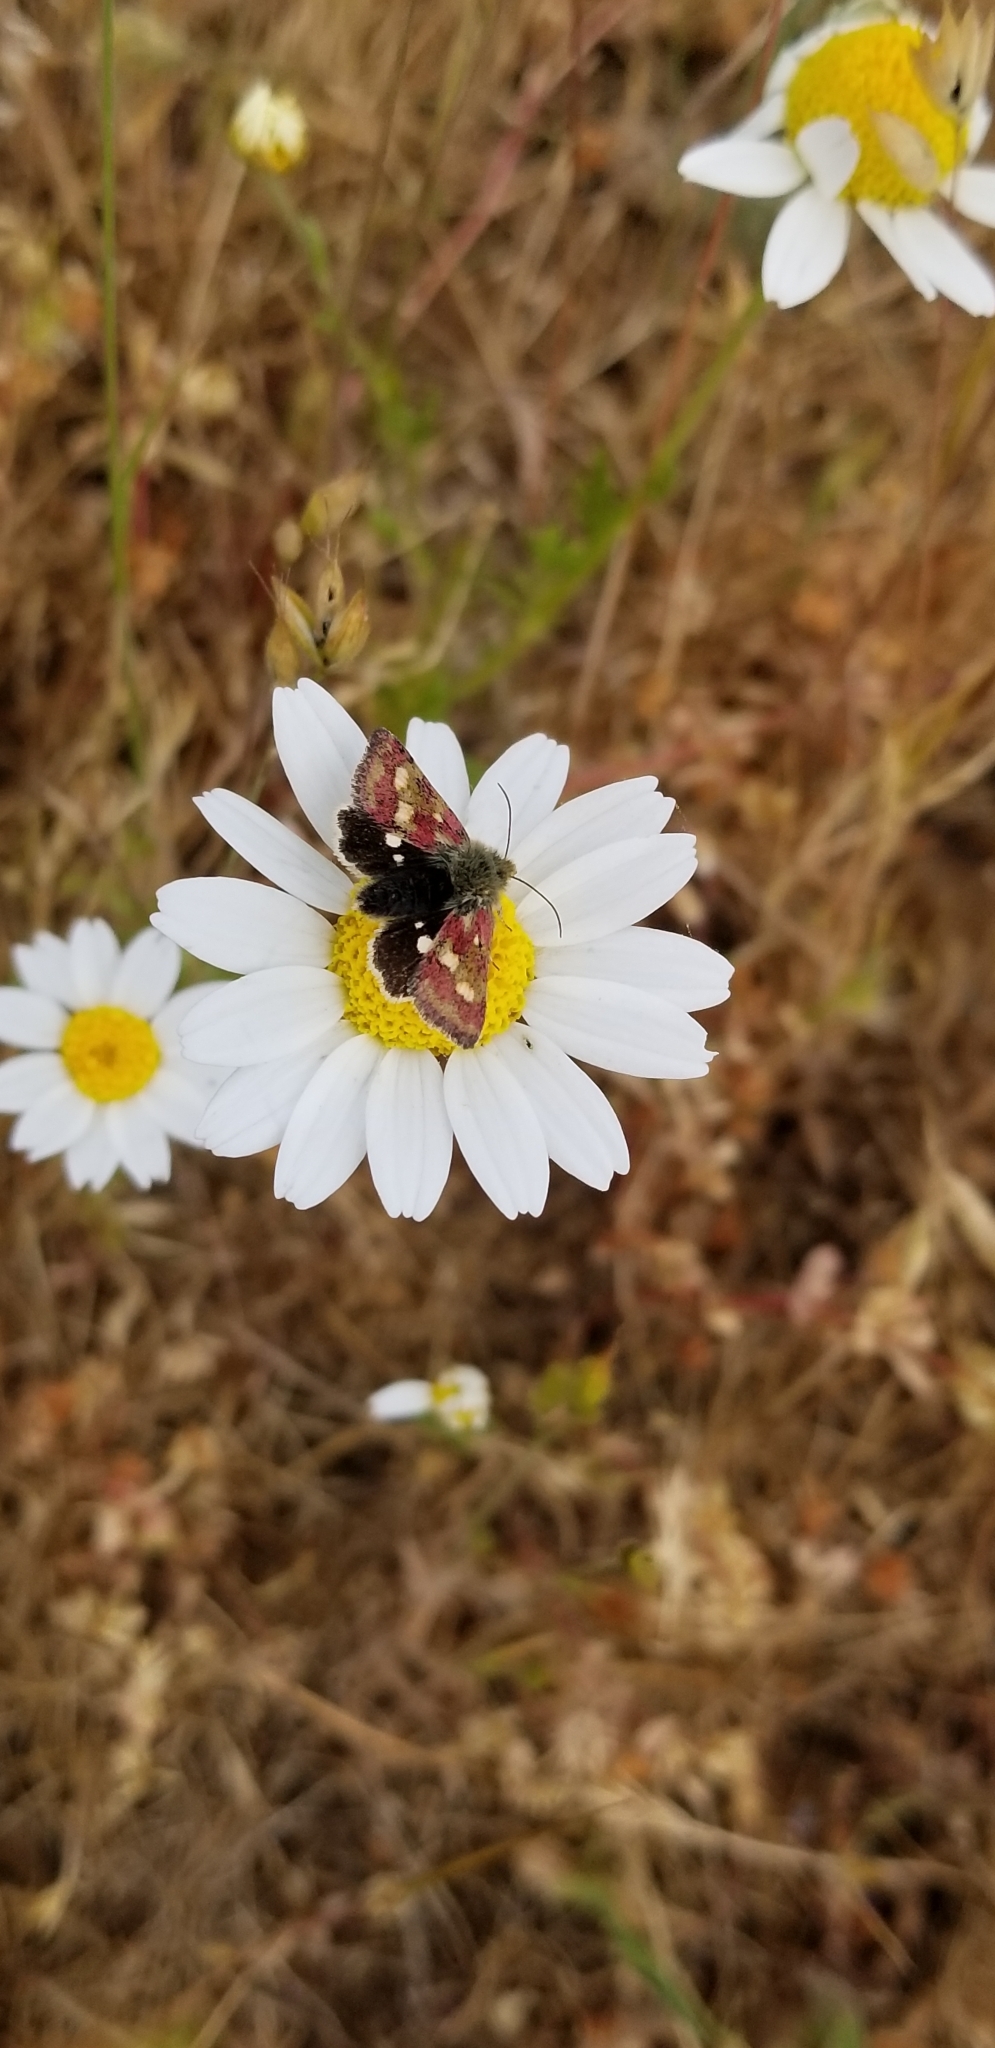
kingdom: Animalia
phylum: Arthropoda
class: Insecta
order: Lepidoptera
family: Noctuidae
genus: Heliothodes
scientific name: Heliothodes diminutiva
